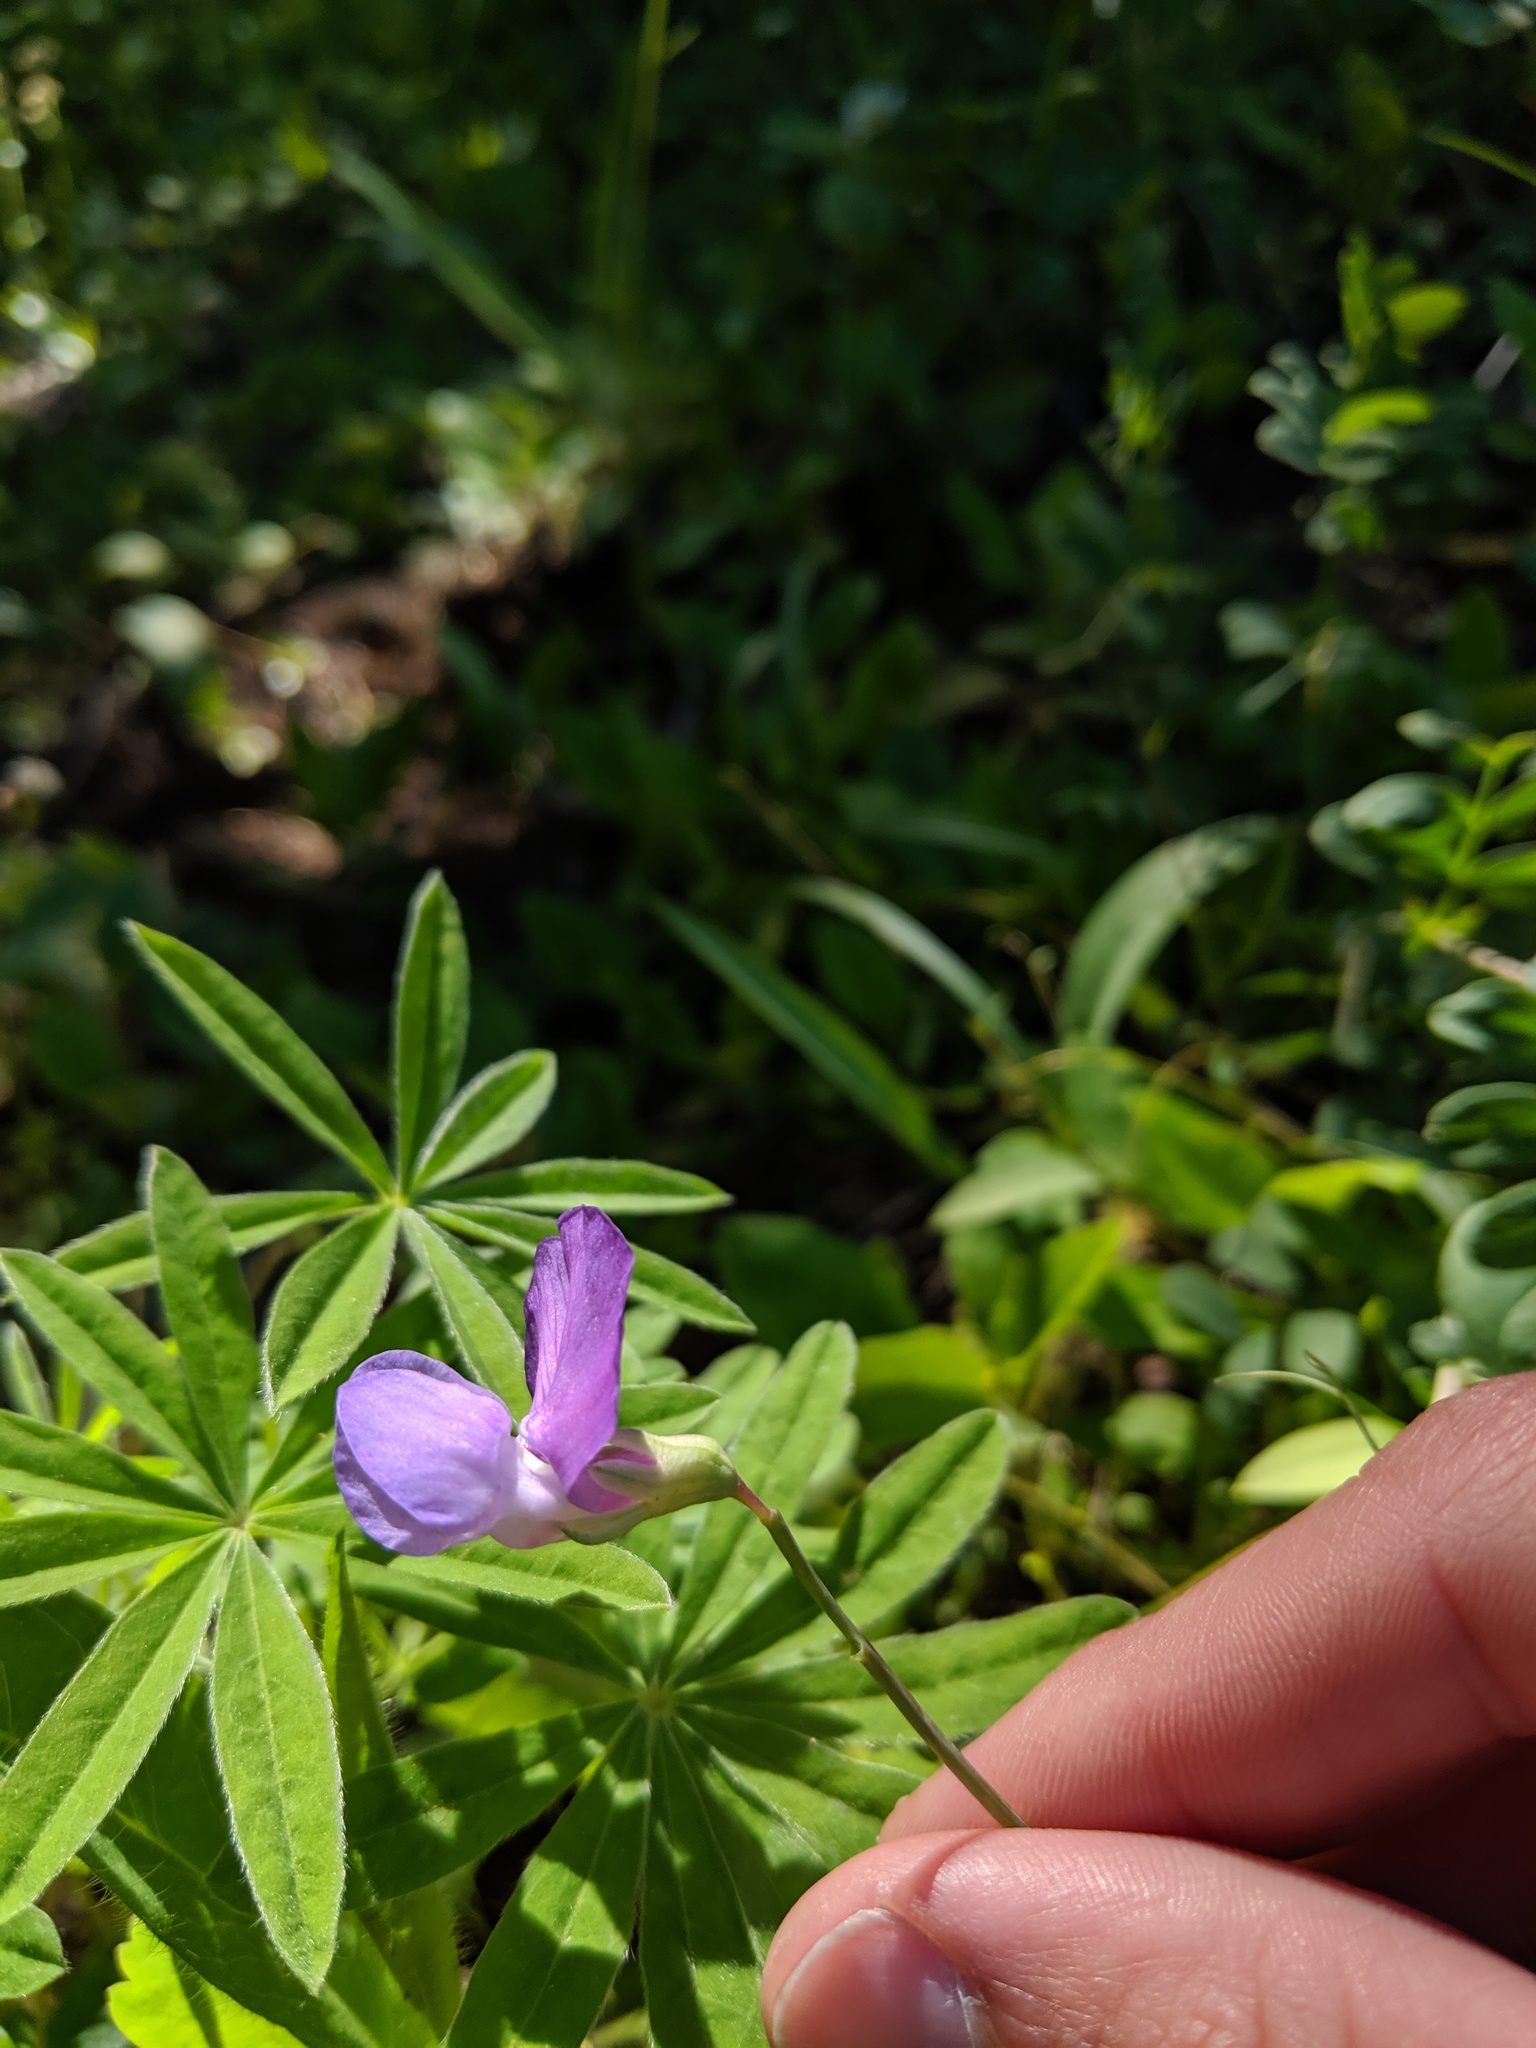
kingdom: Plantae
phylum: Tracheophyta
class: Magnoliopsida
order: Fabales
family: Fabaceae
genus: Lathyrus
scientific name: Lathyrus pauciflorus
